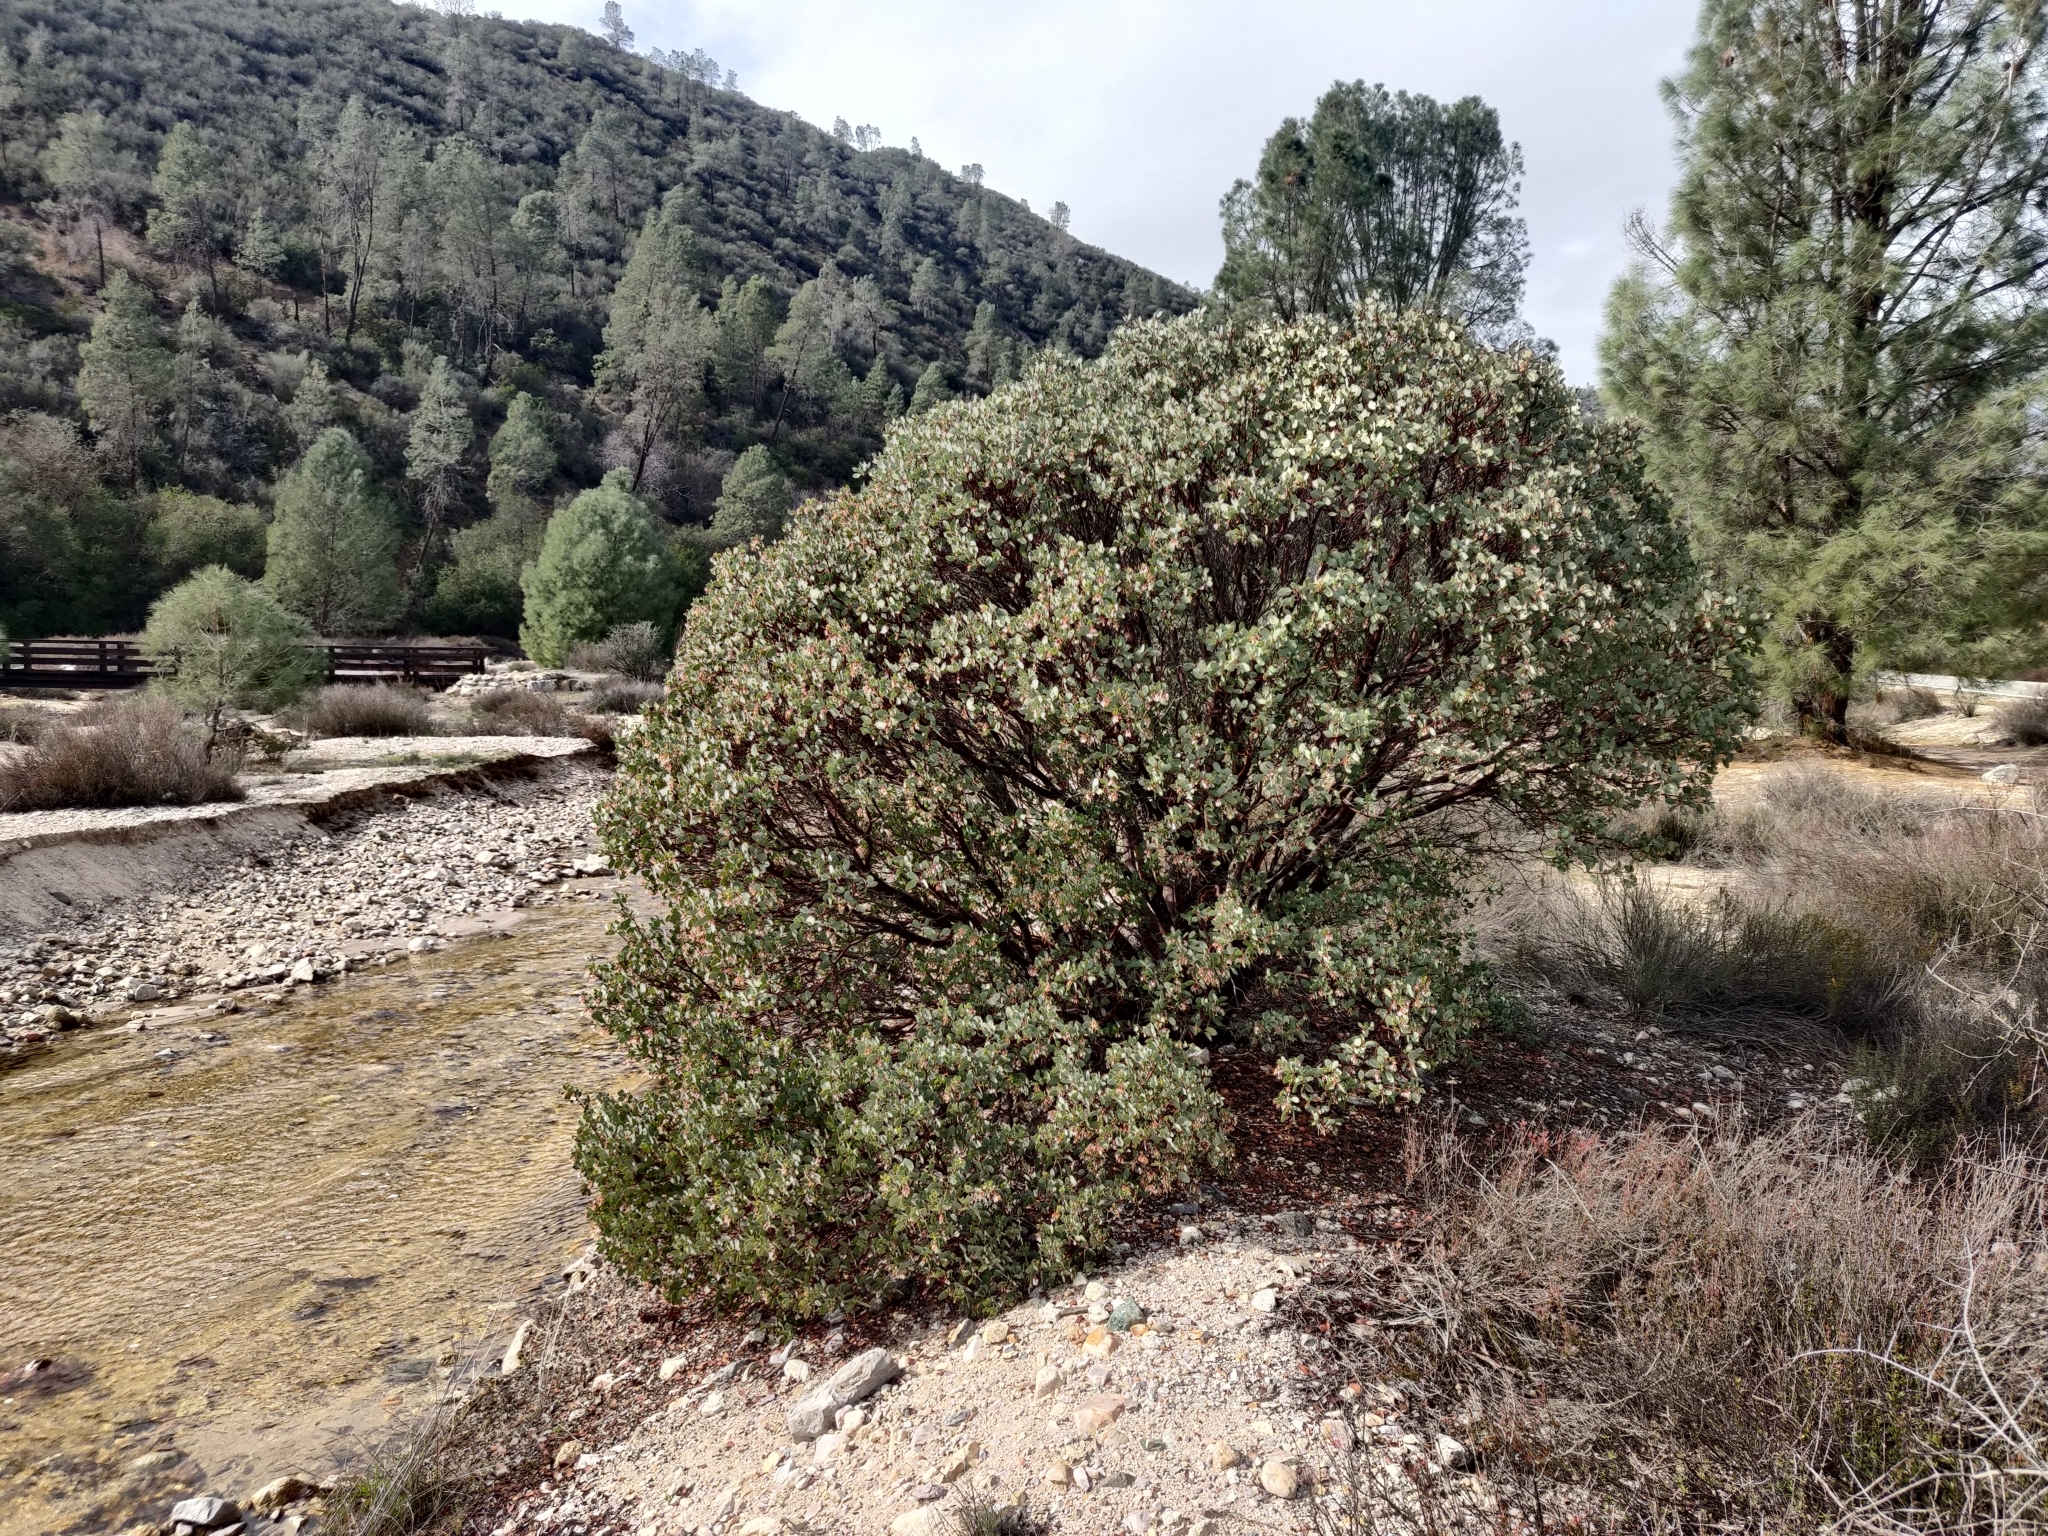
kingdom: Plantae
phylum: Tracheophyta
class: Magnoliopsida
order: Ericales
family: Ericaceae
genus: Arctostaphylos
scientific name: Arctostaphylos glauca
